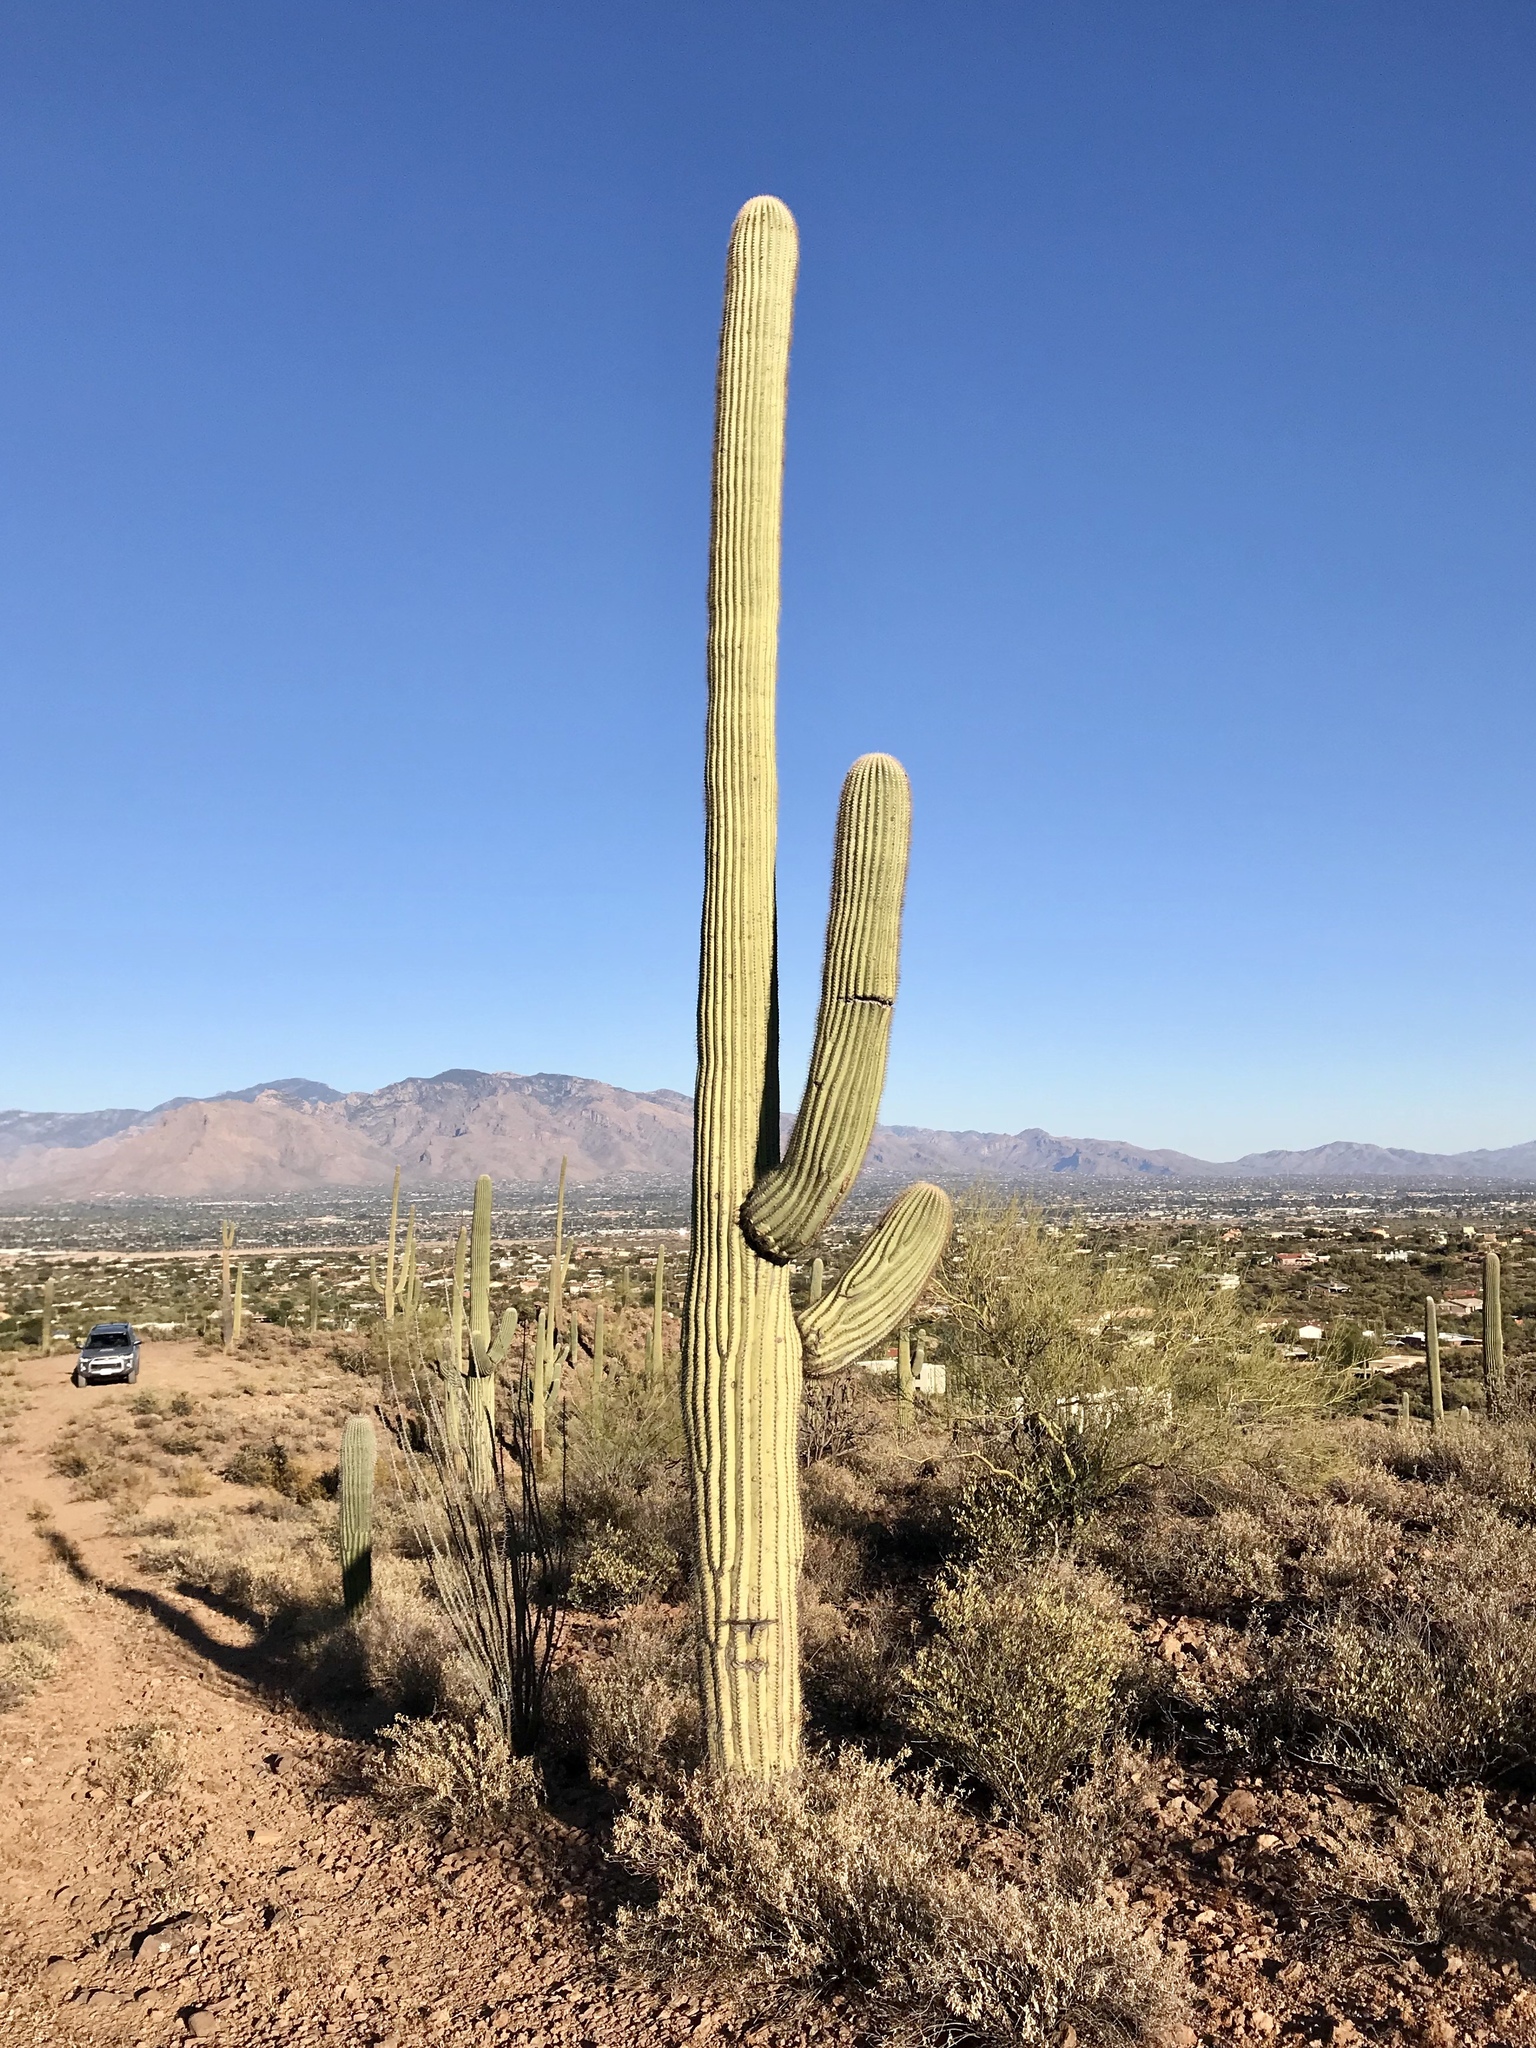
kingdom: Plantae
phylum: Tracheophyta
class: Magnoliopsida
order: Caryophyllales
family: Cactaceae
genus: Carnegiea
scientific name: Carnegiea gigantea
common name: Saguaro
